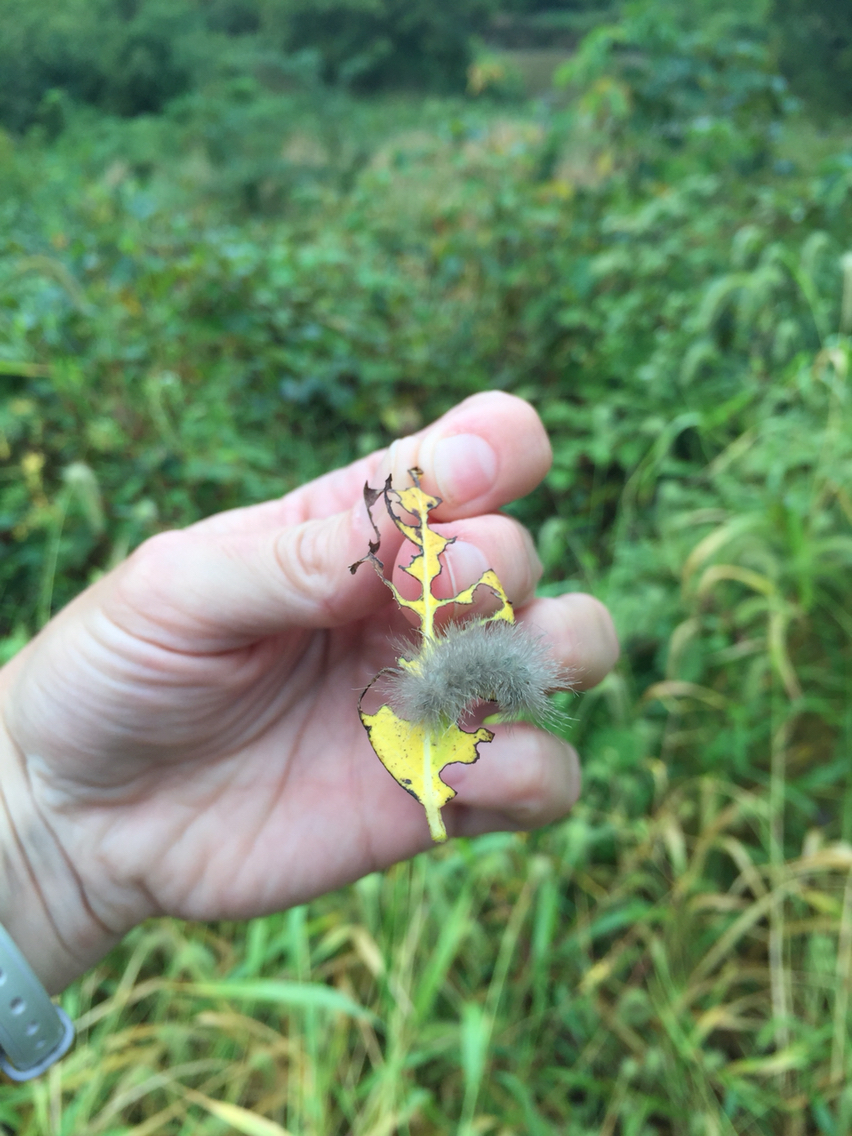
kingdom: Animalia
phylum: Arthropoda
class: Insecta
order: Lepidoptera
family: Erebidae
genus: Cycnia
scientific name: Cycnia tenera
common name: Delicate cycnia moth
